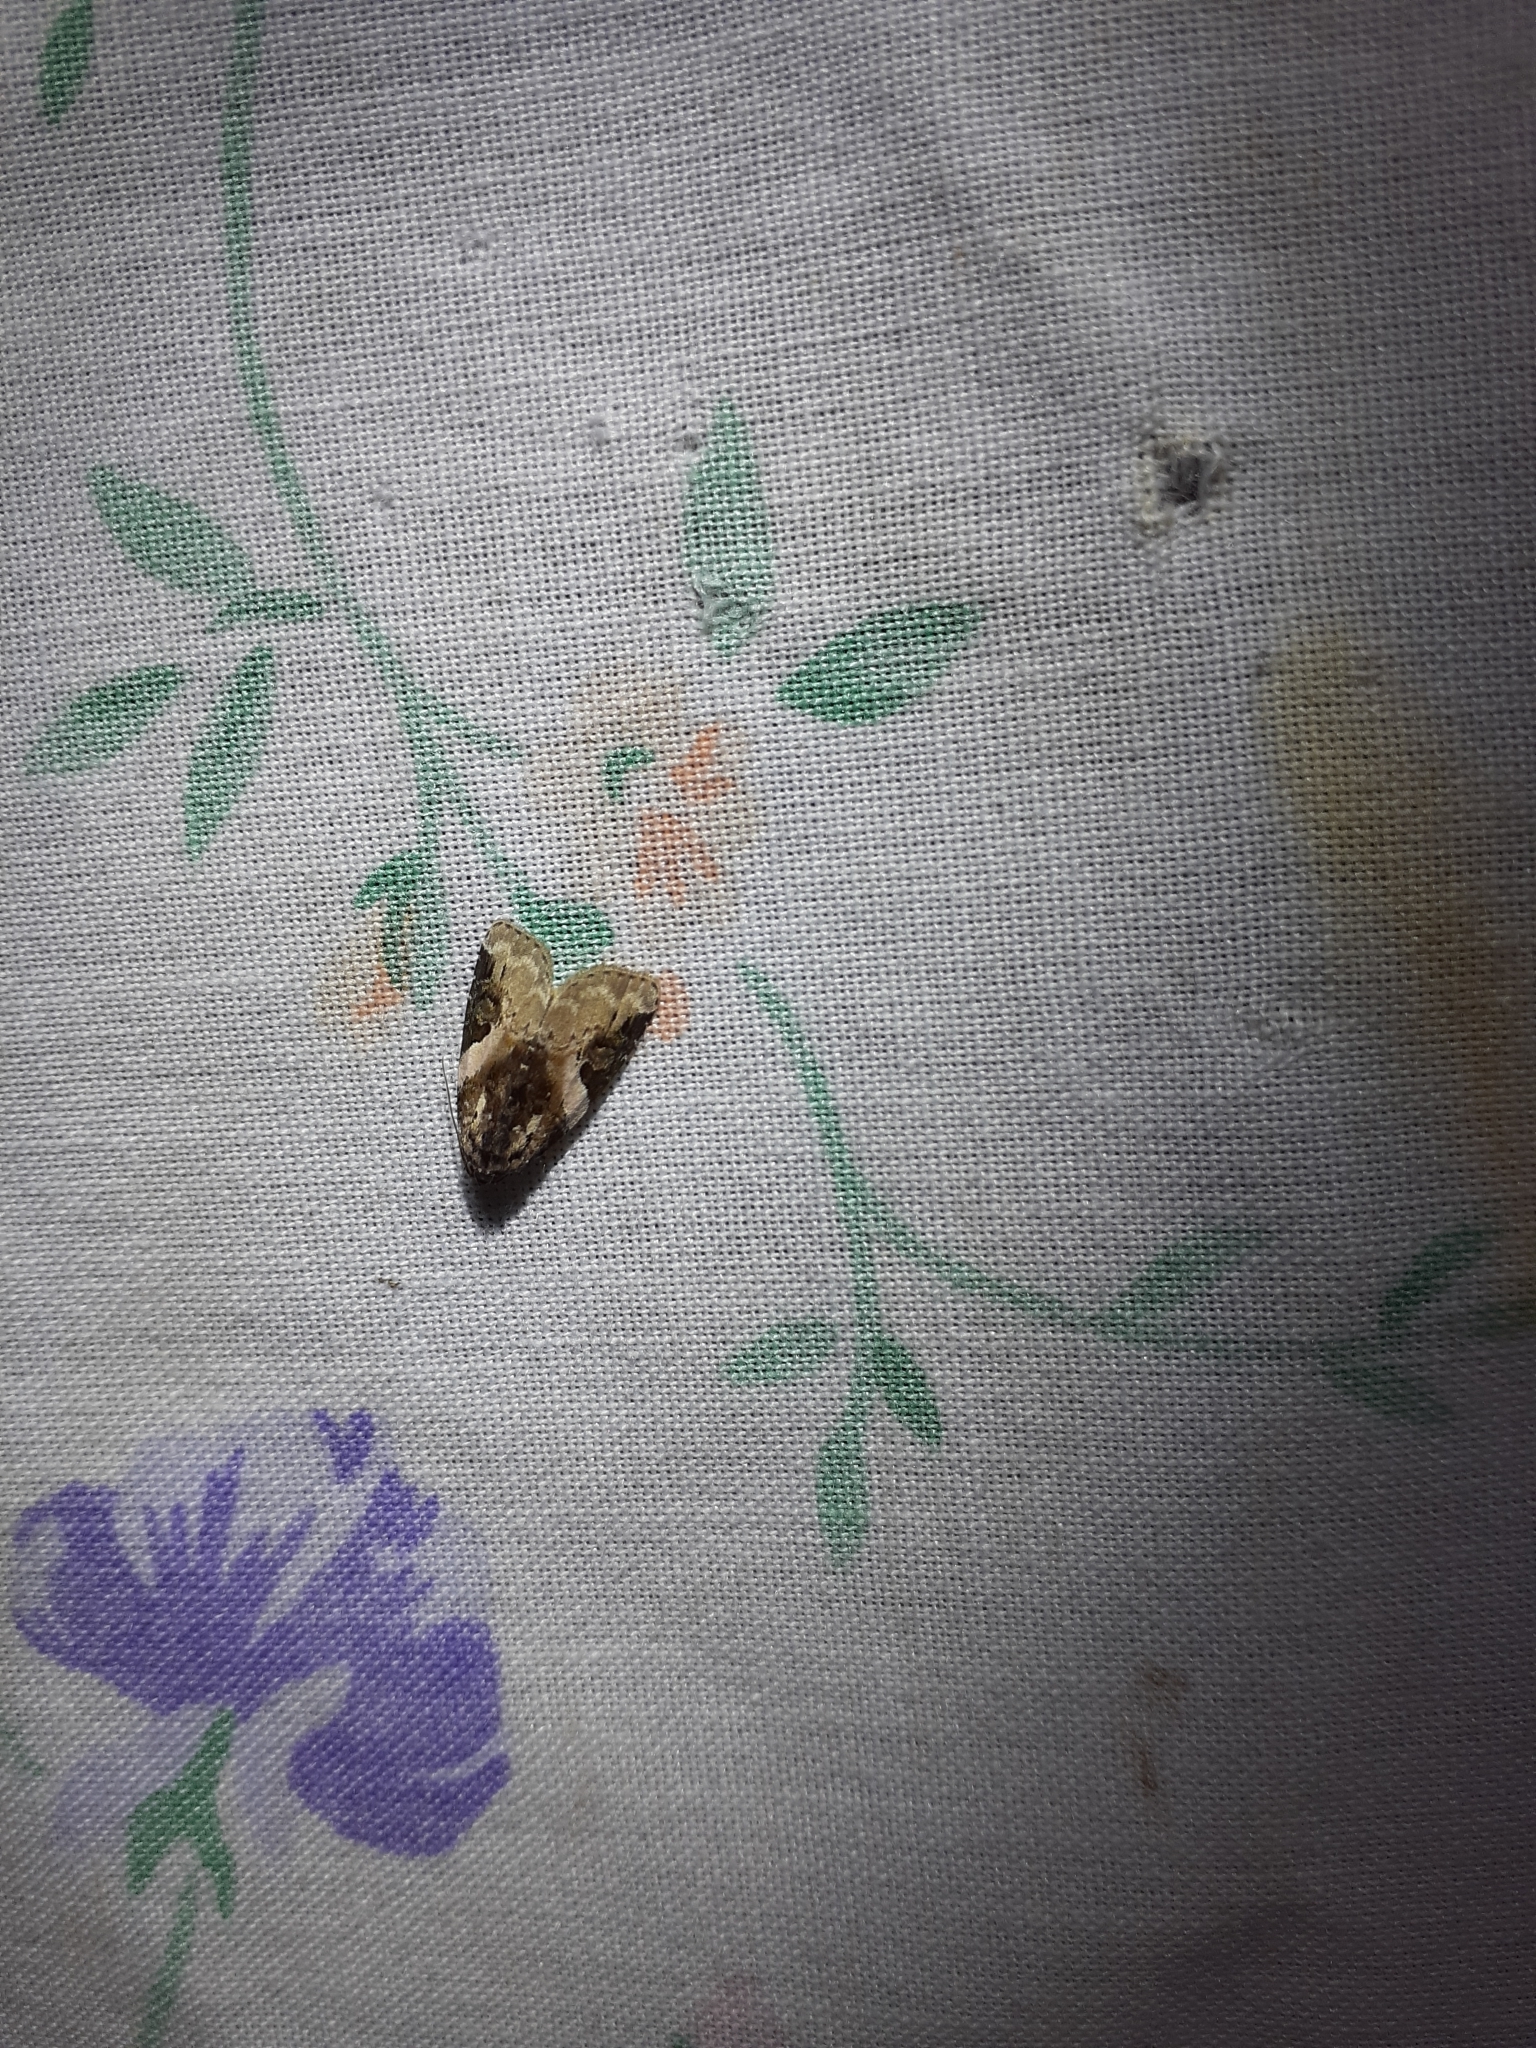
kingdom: Animalia
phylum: Arthropoda
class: Insecta
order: Lepidoptera
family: Noctuidae
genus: Pseudeustrotia
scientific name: Pseudeustrotia carneola
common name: Pink-barred lithacodia moth
